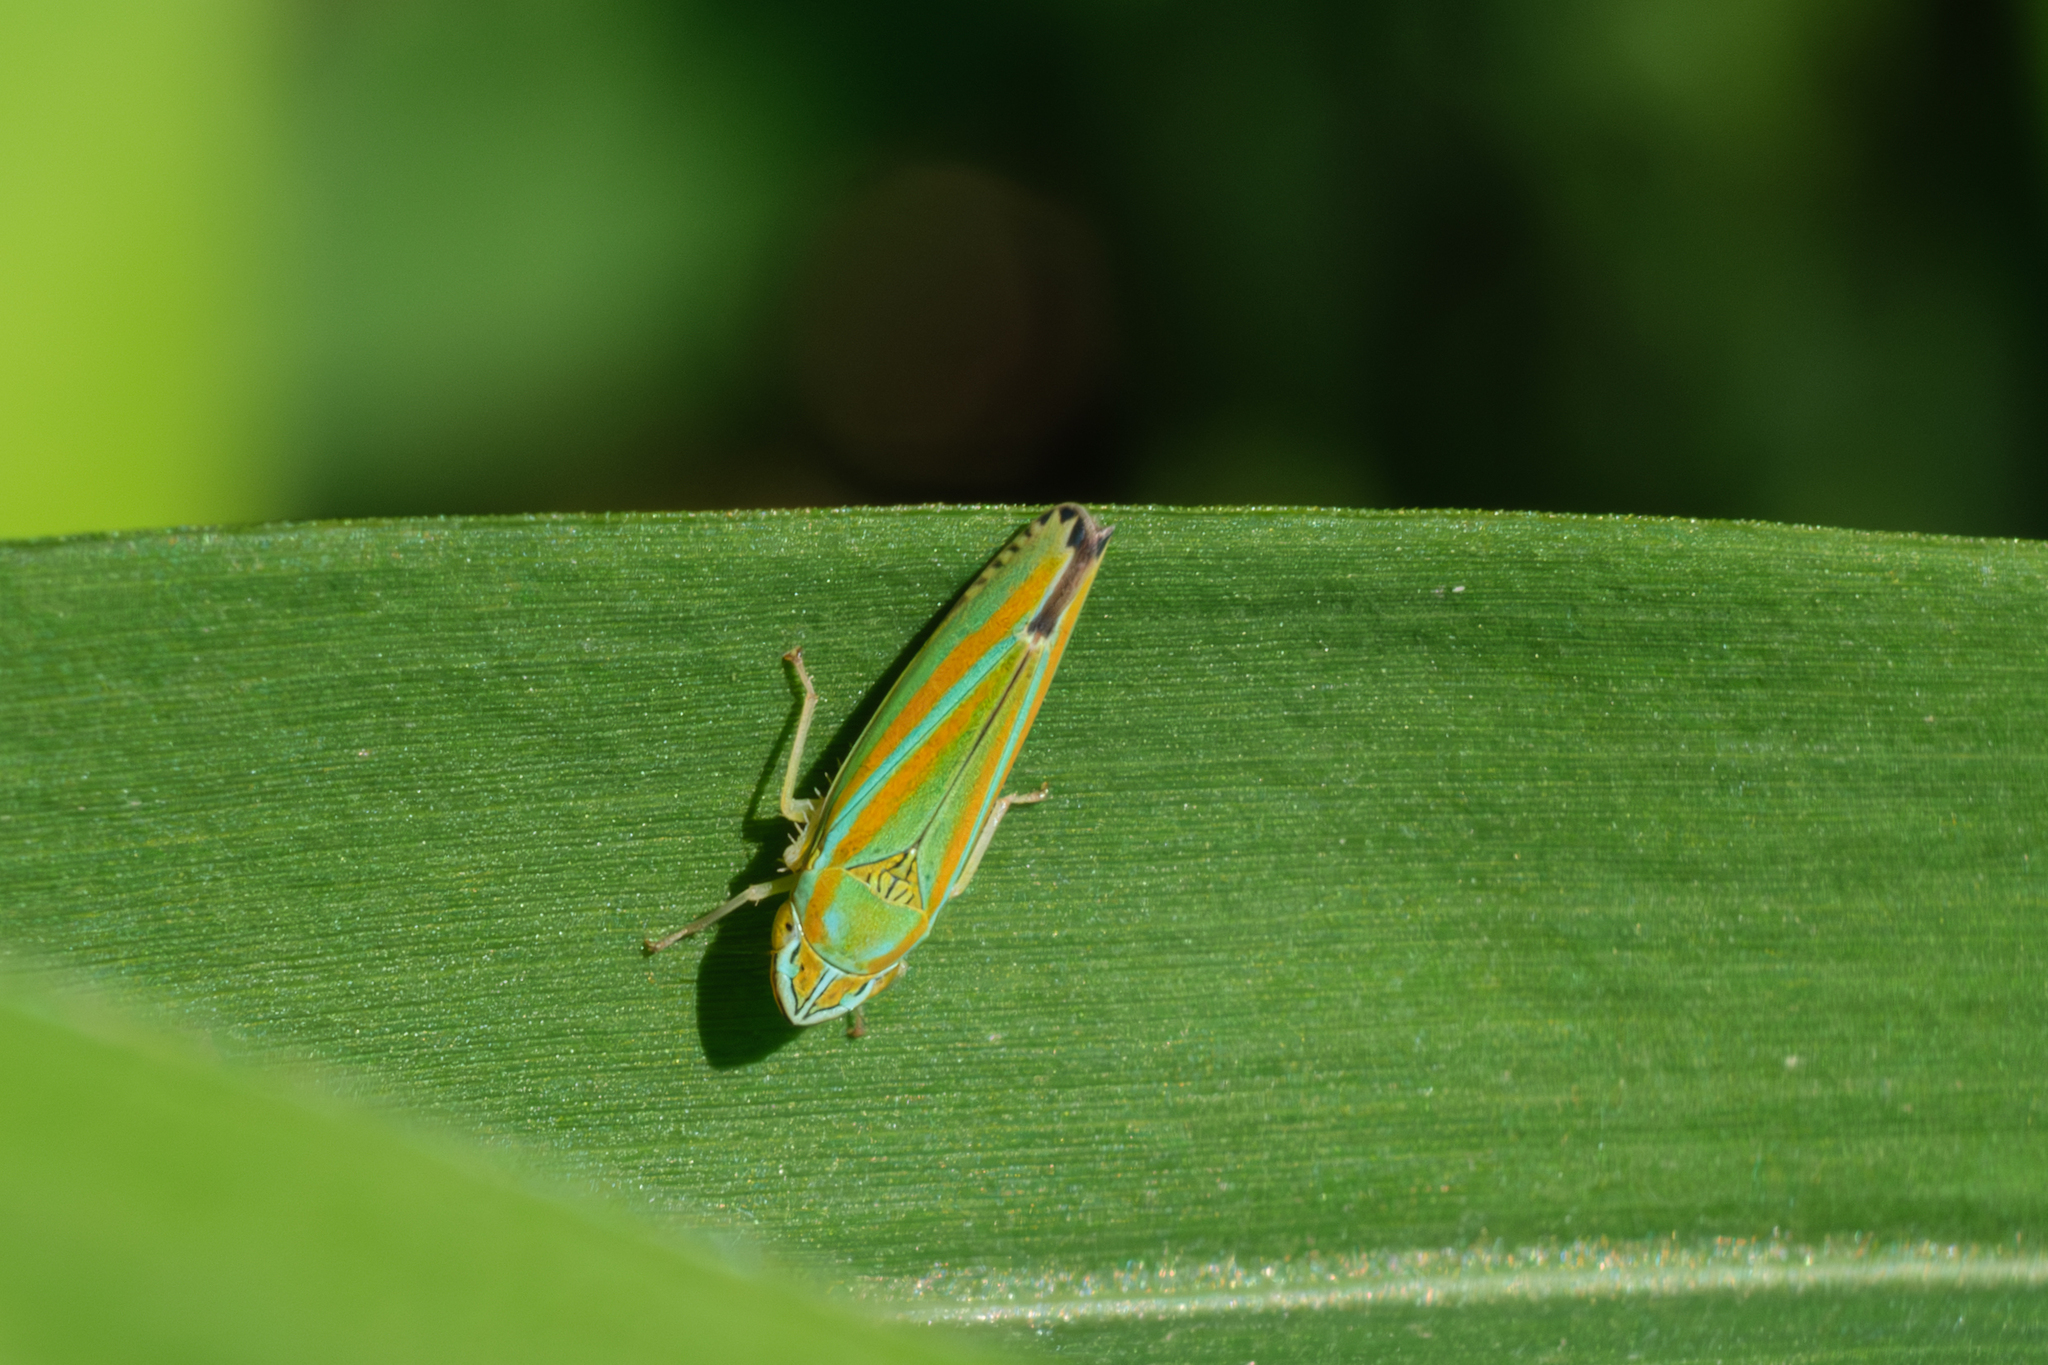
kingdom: Animalia
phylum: Arthropoda
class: Insecta
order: Hemiptera
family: Cicadellidae
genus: Graphocephala
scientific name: Graphocephala versuta
